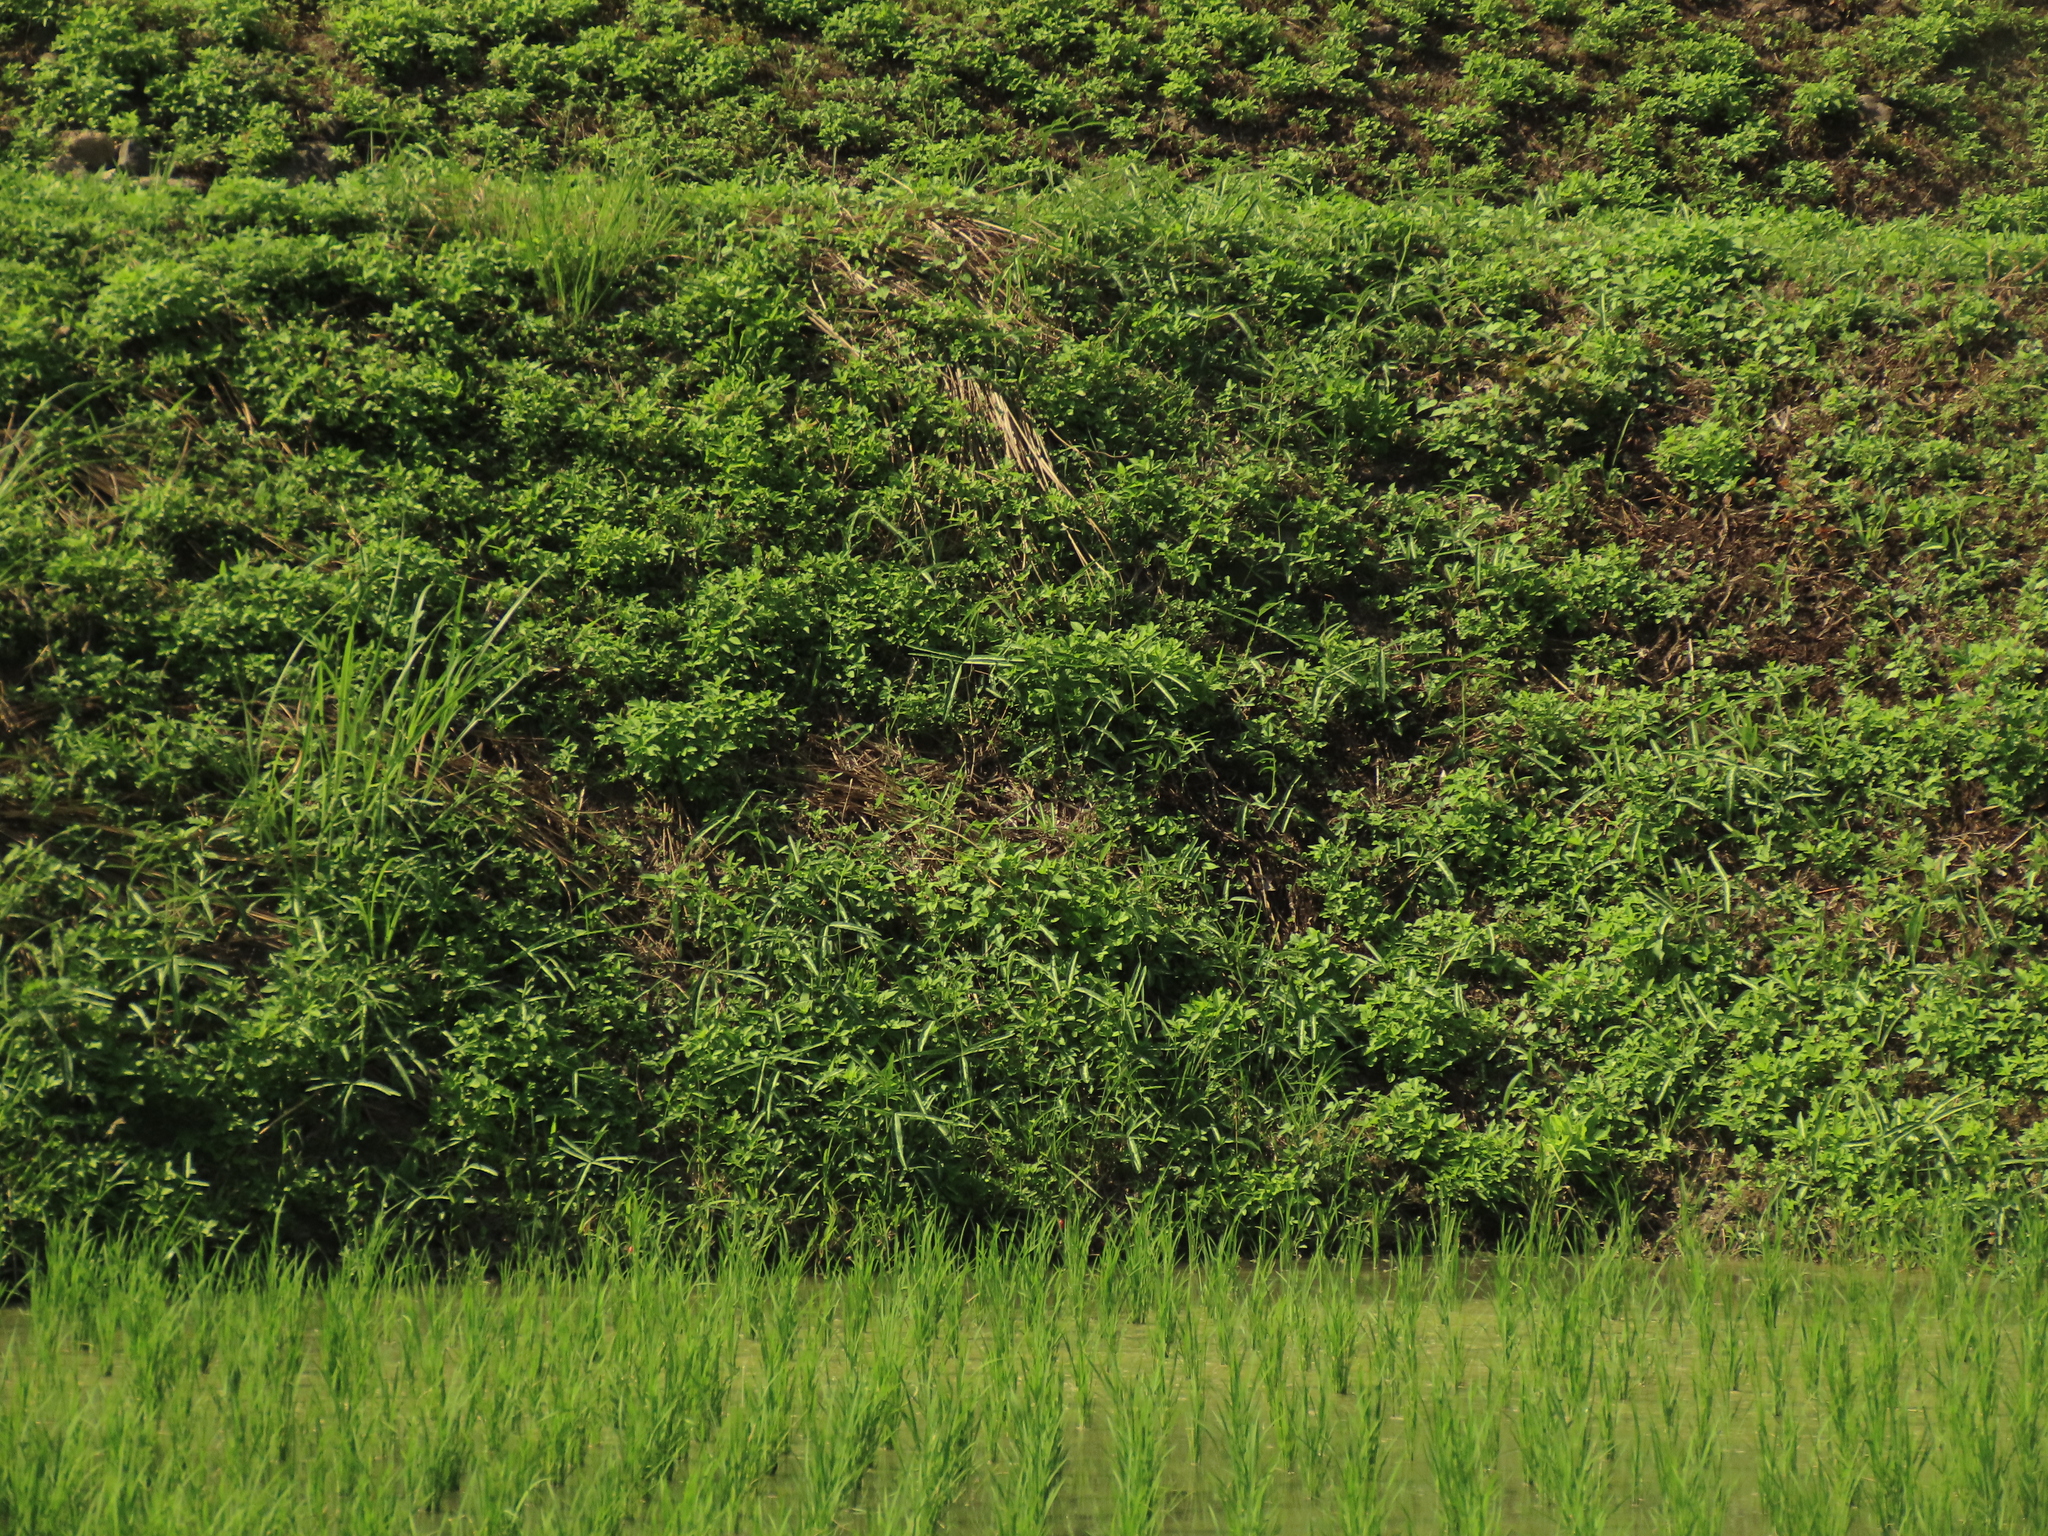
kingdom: Plantae
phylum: Tracheophyta
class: Magnoliopsida
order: Fabales
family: Fabaceae
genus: Uraria
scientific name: Uraria picta
